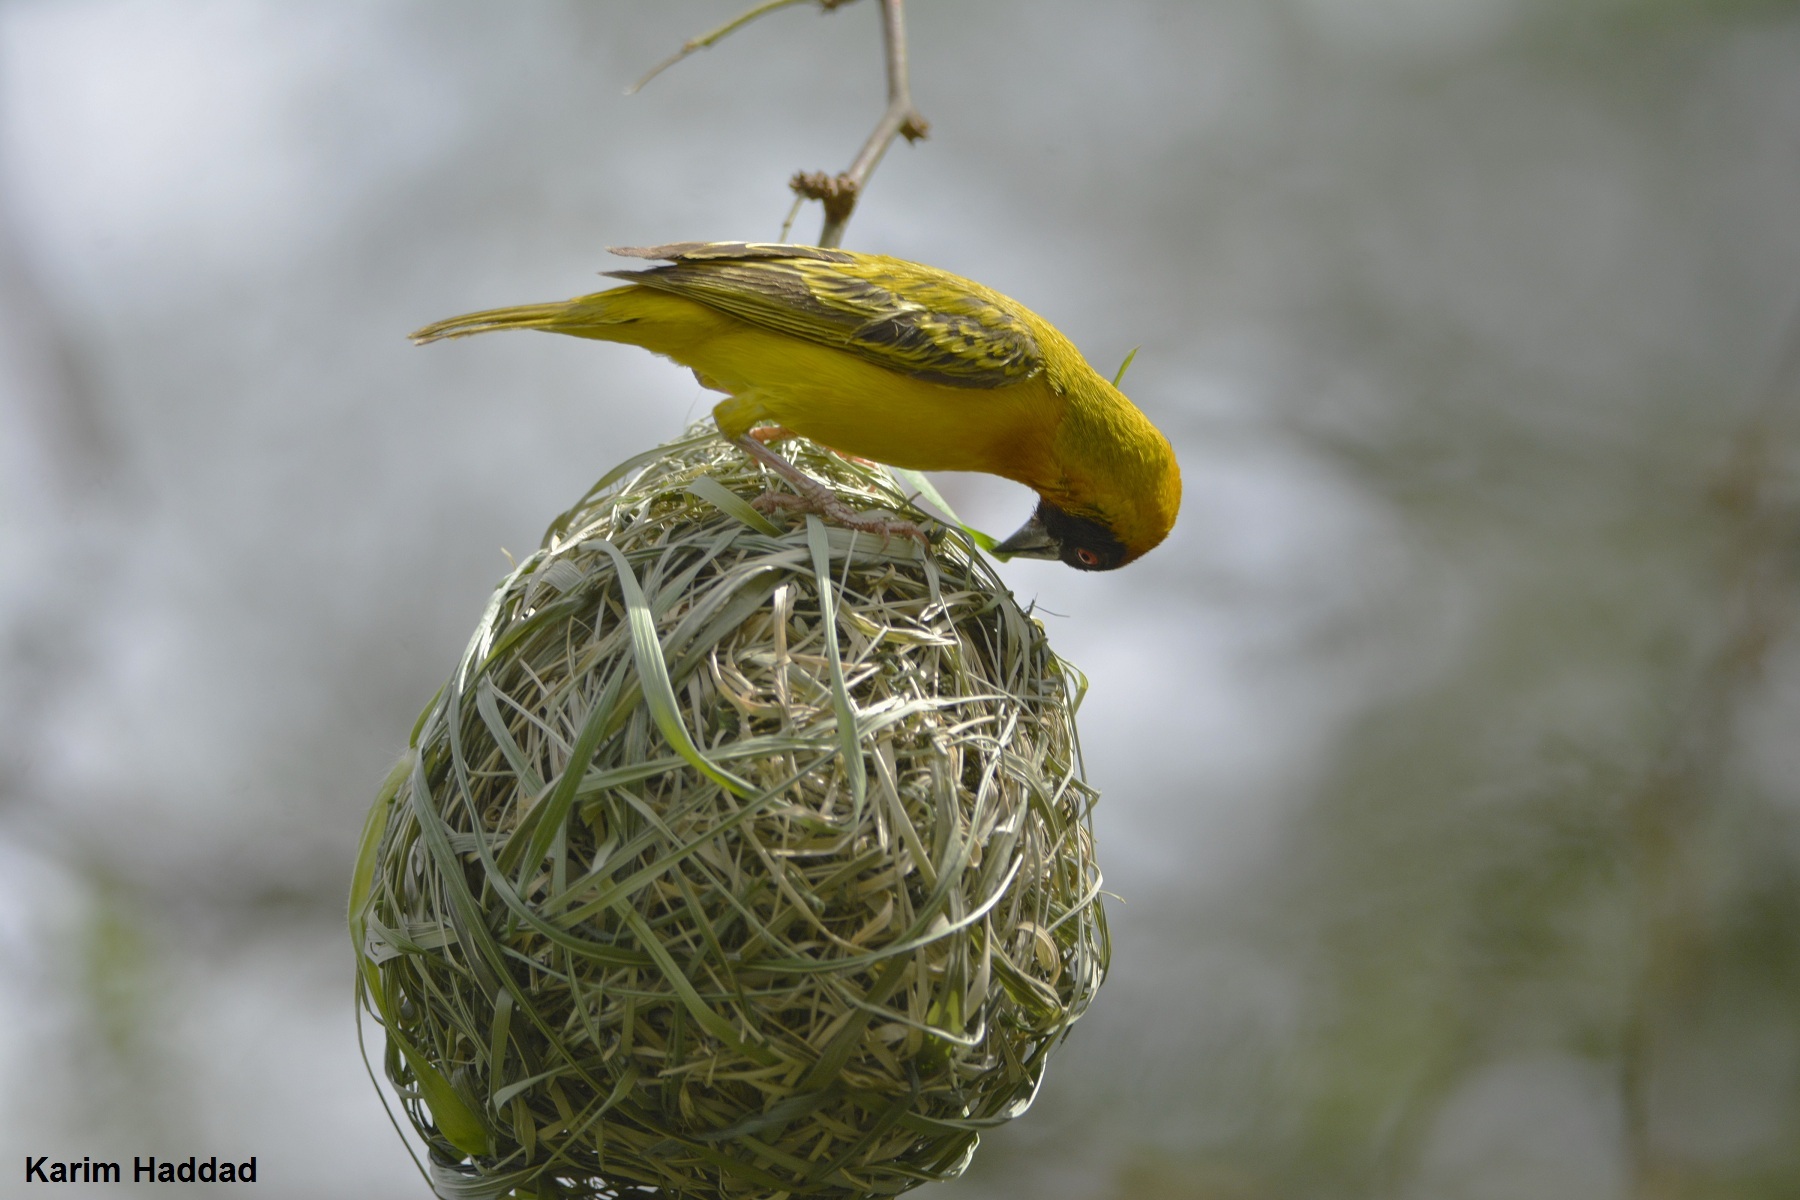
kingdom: Animalia
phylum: Chordata
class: Aves
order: Passeriformes
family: Ploceidae
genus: Ploceus
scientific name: Ploceus vitellinus
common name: Vitelline masked weaver
